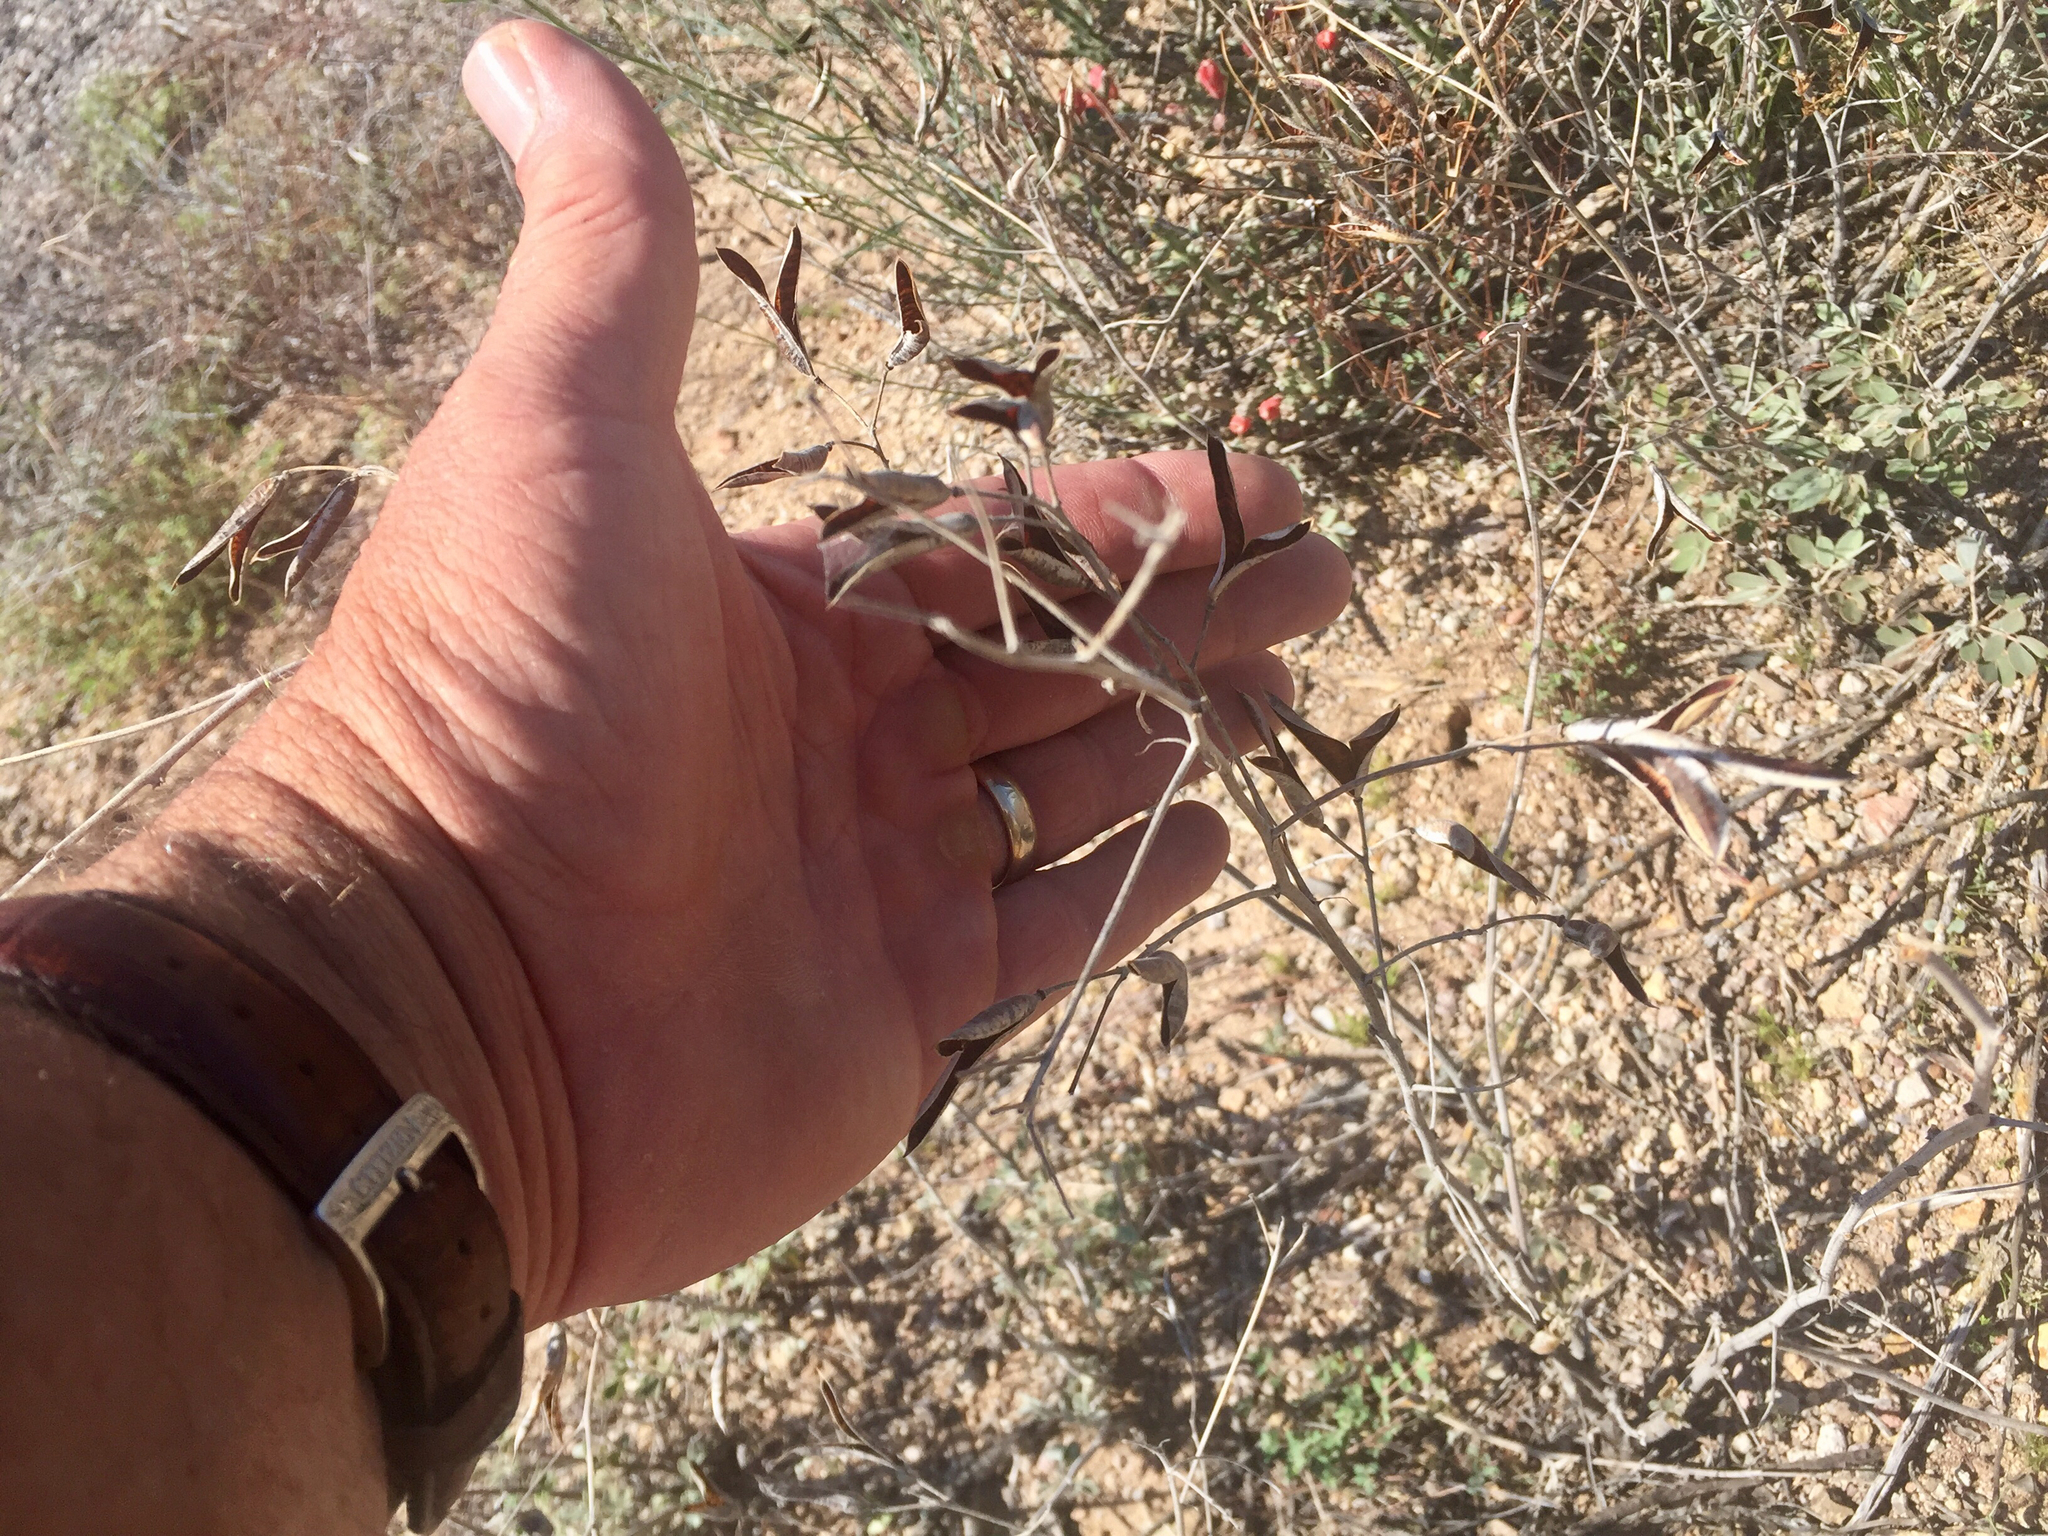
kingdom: Plantae
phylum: Tracheophyta
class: Magnoliopsida
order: Fabales
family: Fabaceae
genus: Senna
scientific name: Senna covesii
